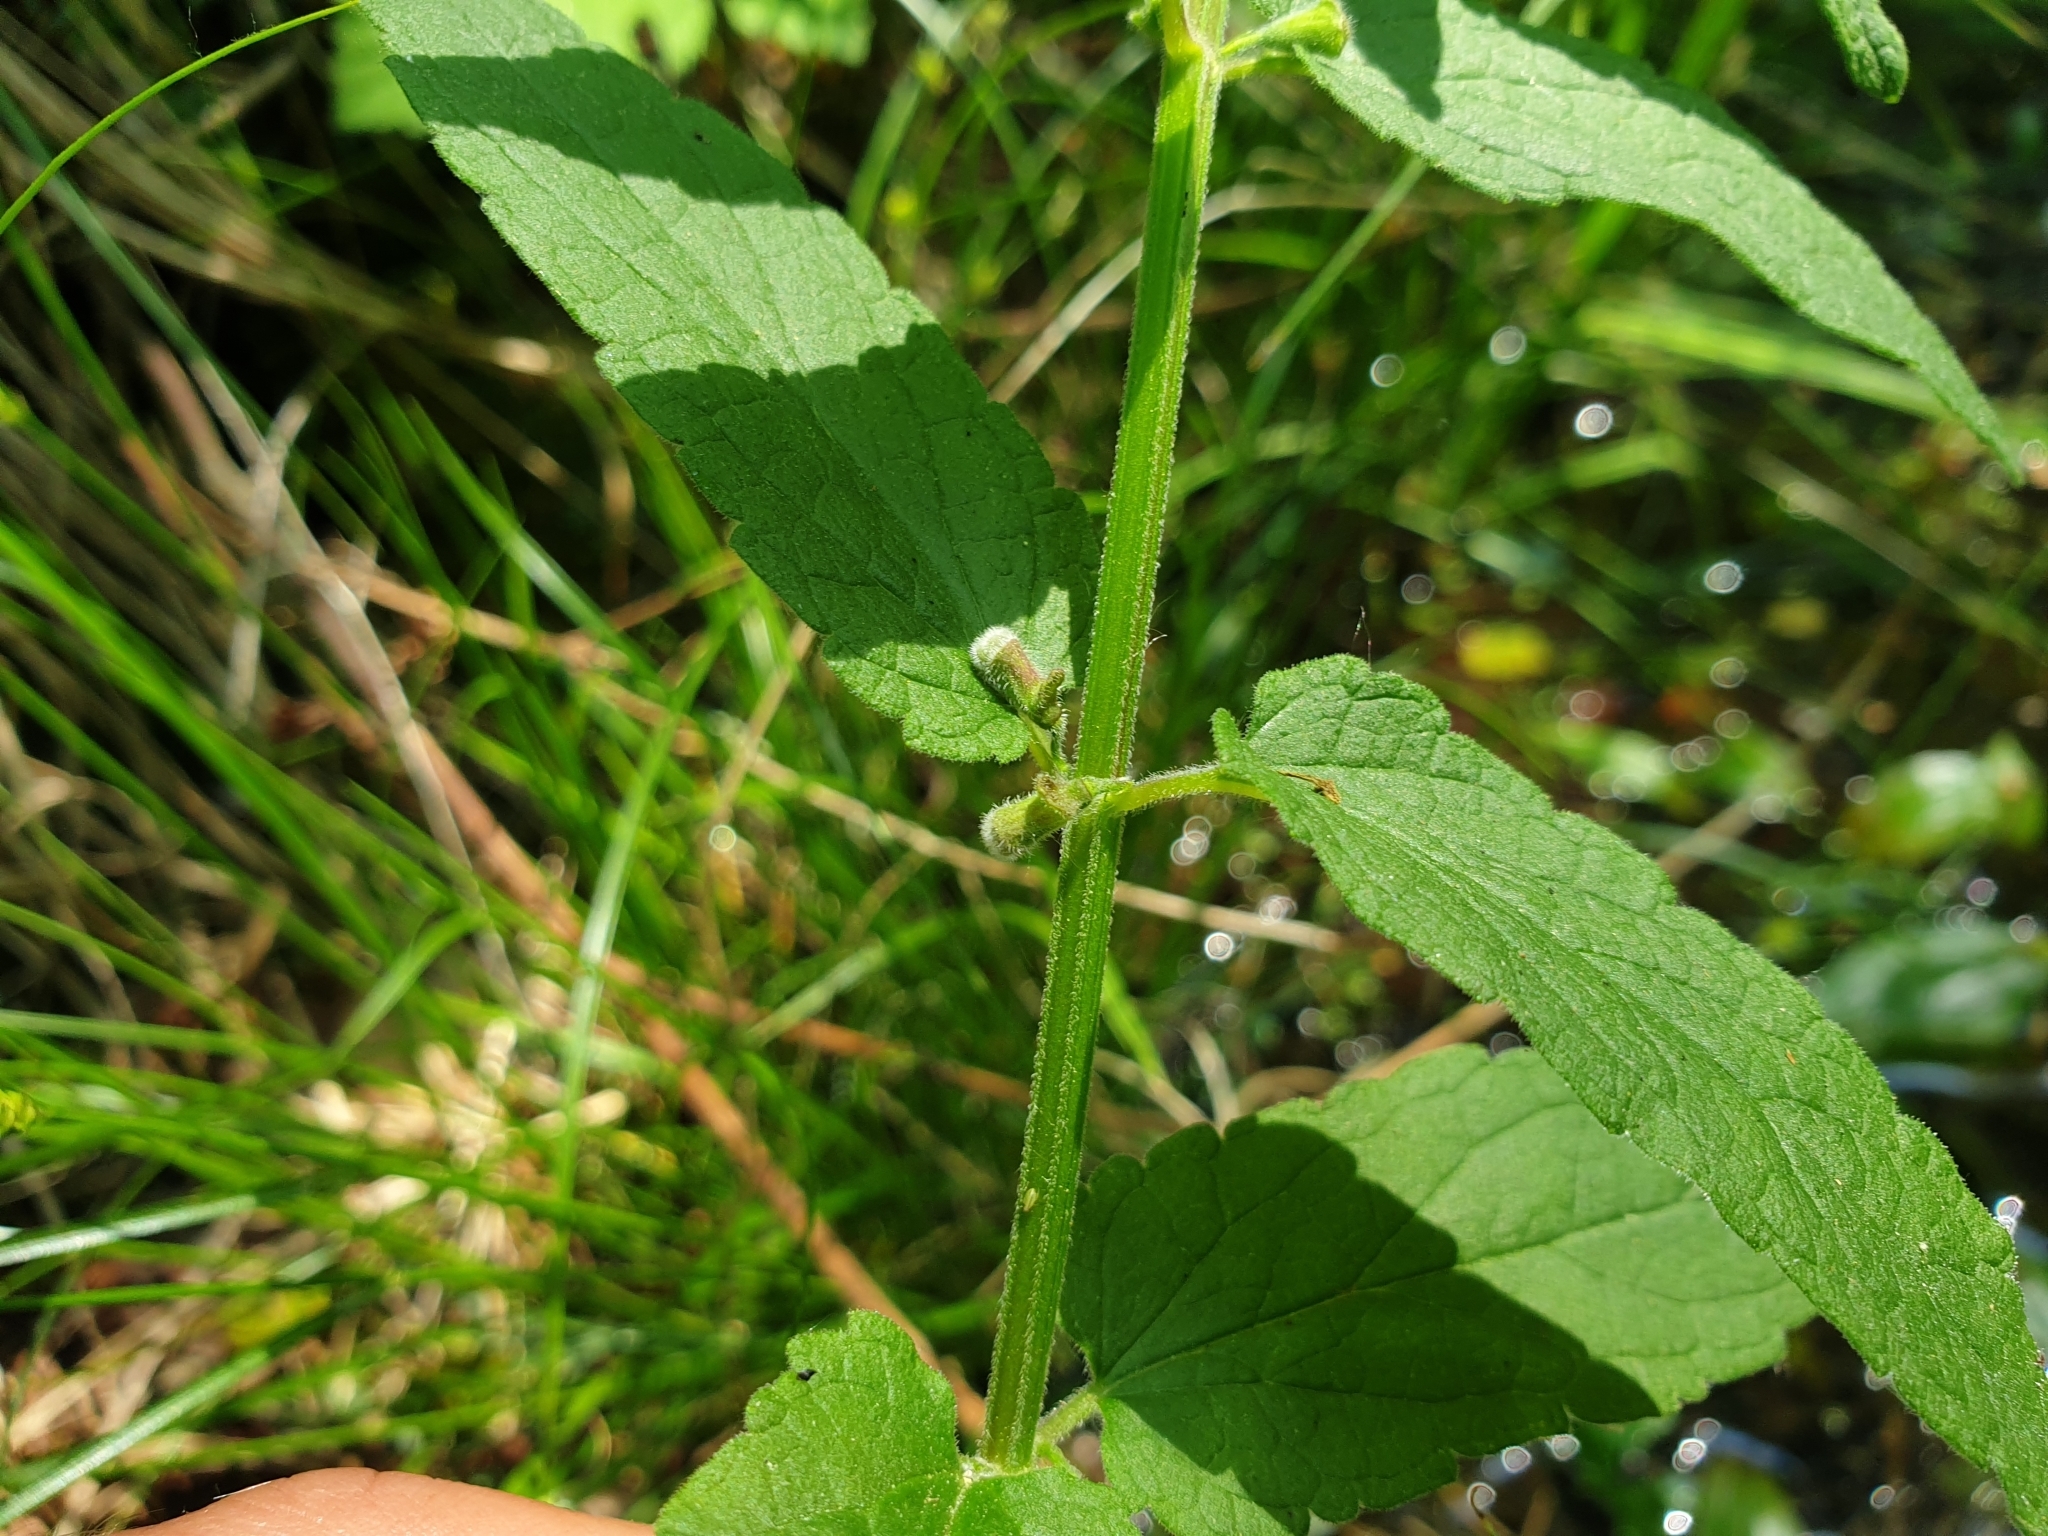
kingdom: Plantae
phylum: Tracheophyta
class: Magnoliopsida
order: Lamiales
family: Lamiaceae
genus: Scutellaria
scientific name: Scutellaria galericulata
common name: Skullcap
